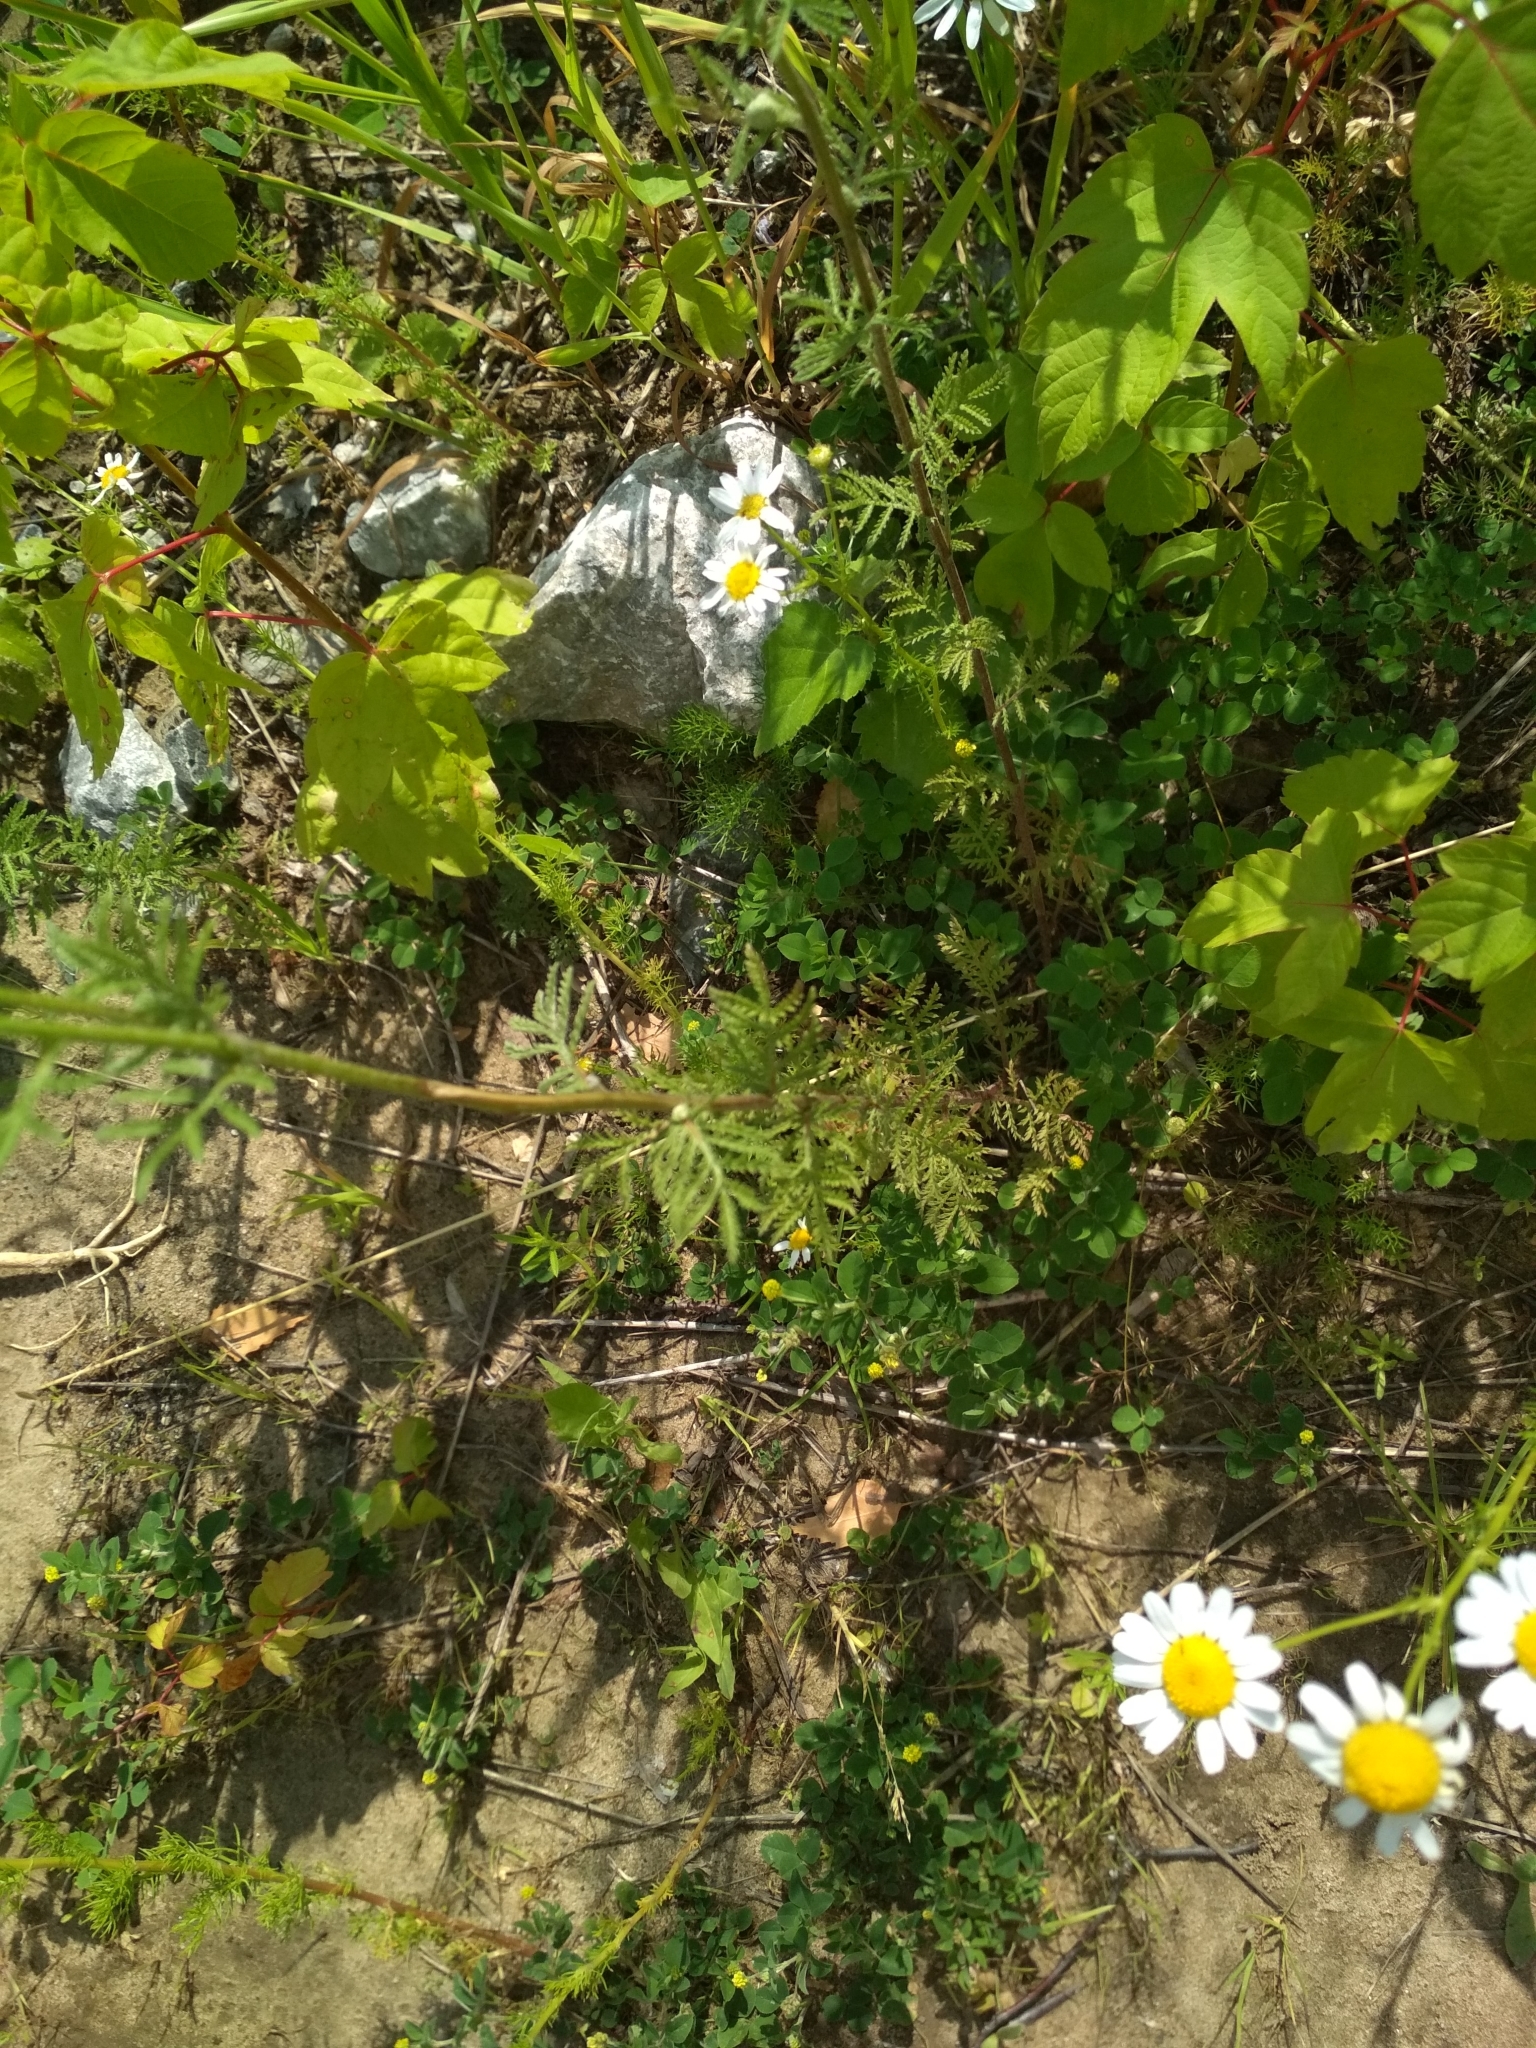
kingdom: Plantae
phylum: Tracheophyta
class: Magnoliopsida
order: Asterales
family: Asteraceae
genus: Cota
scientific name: Cota tinctoria
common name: Golden chamomile
